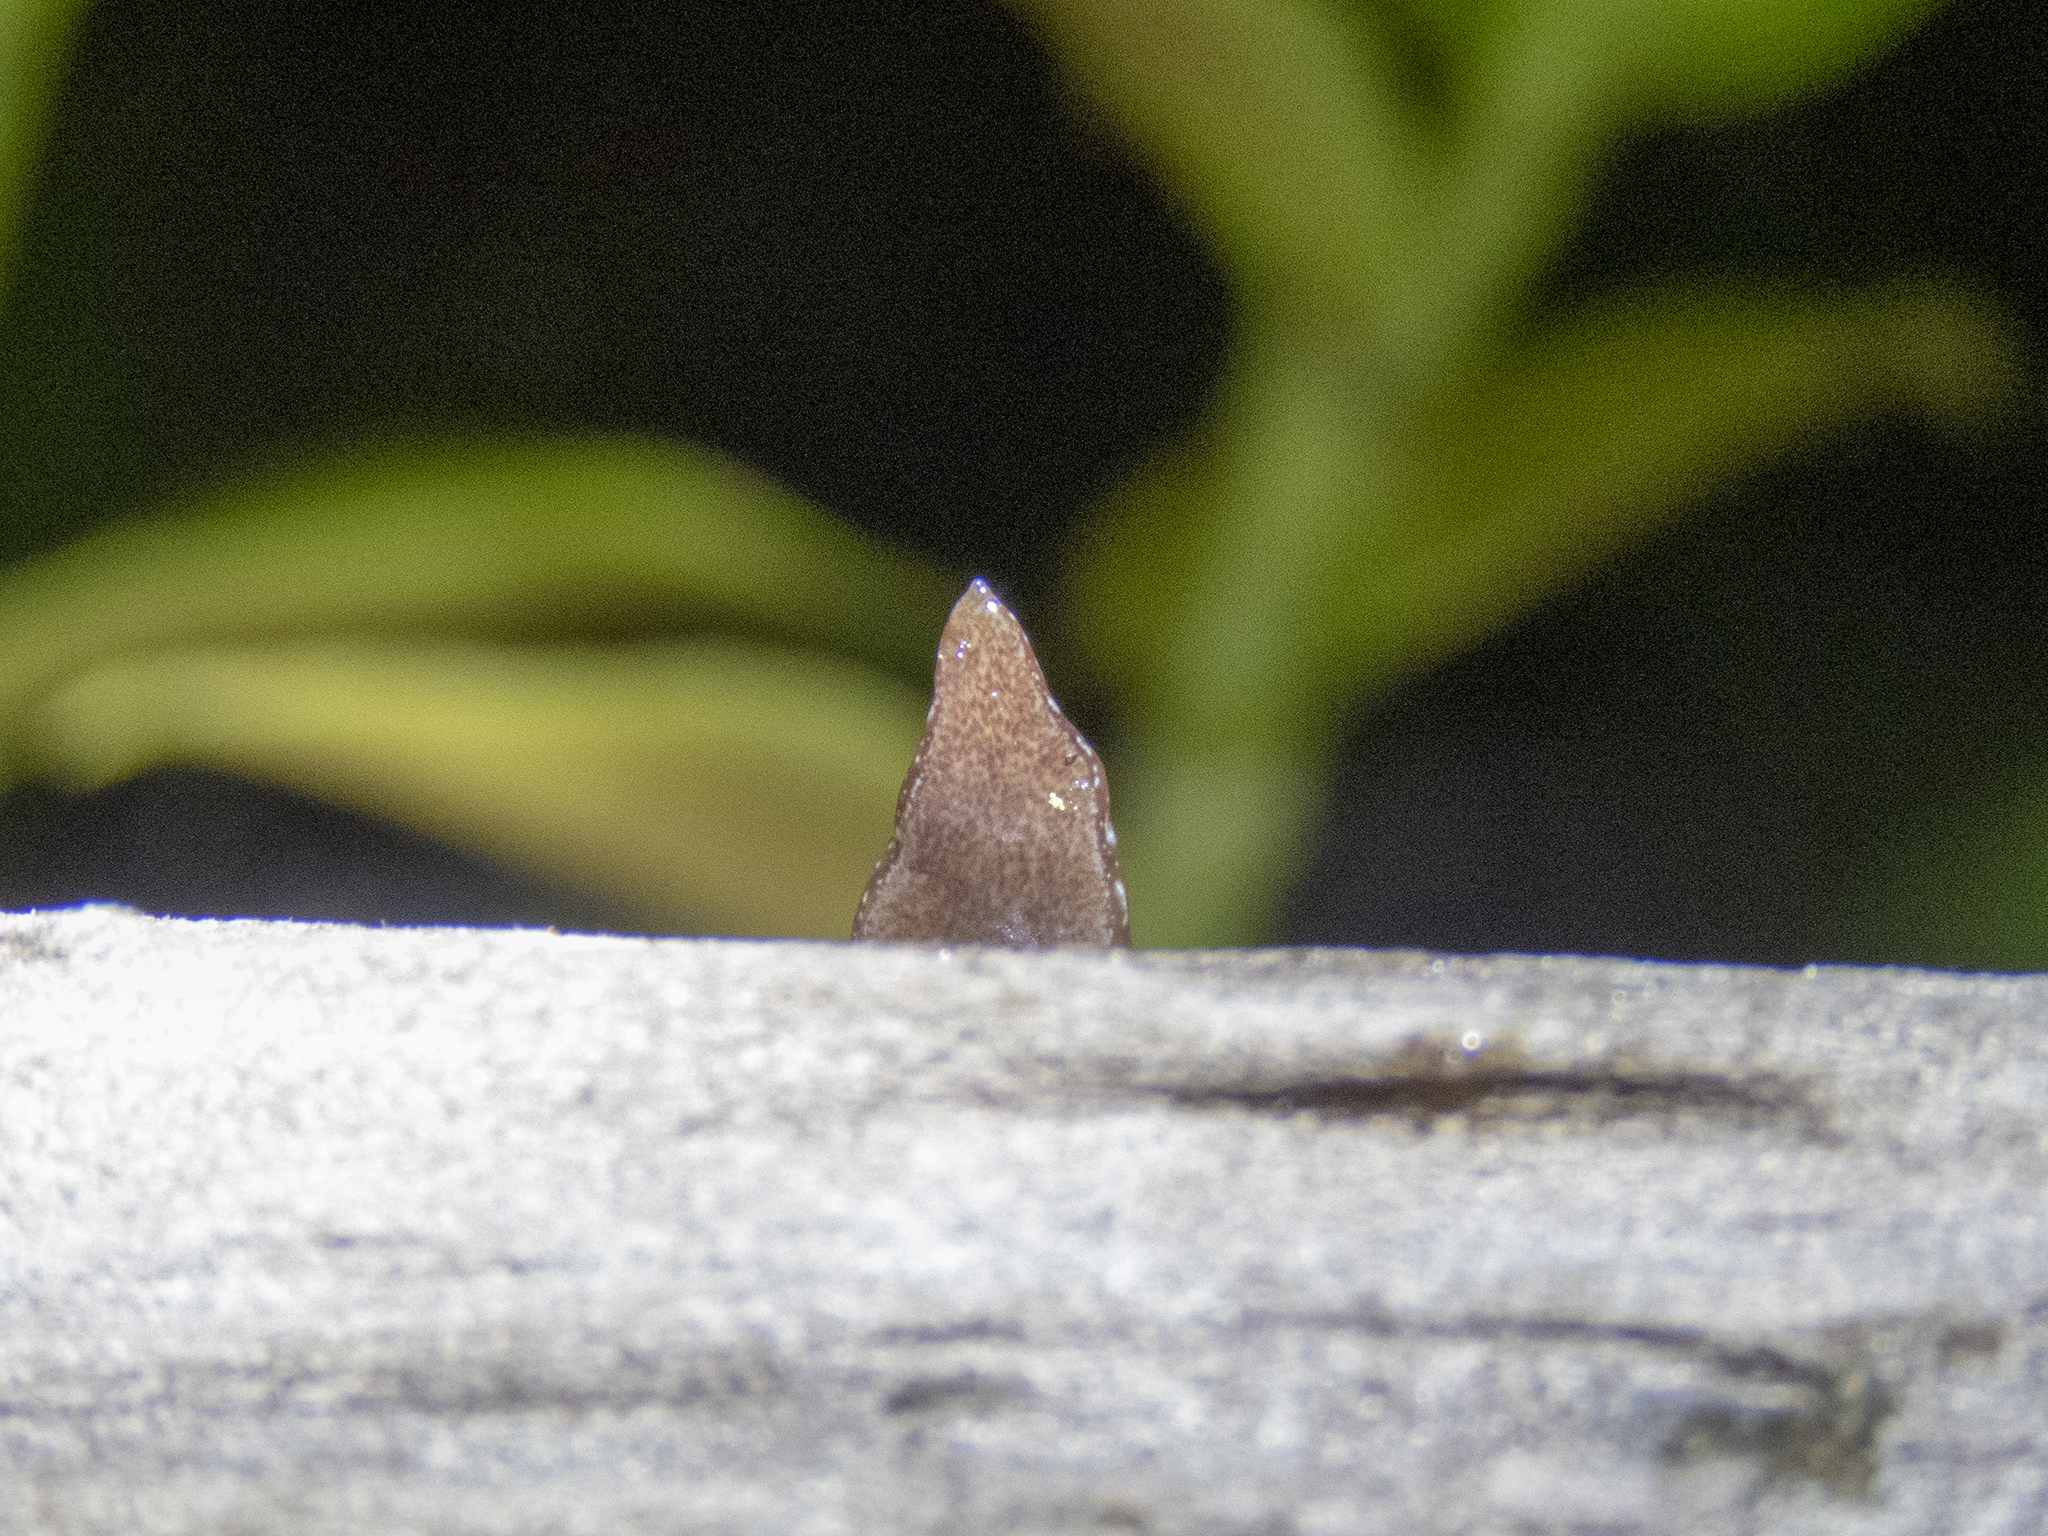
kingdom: Animalia
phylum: Platyhelminthes
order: Tricladida
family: Geoplanidae
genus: Newzealandia
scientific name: Newzealandia graffii
